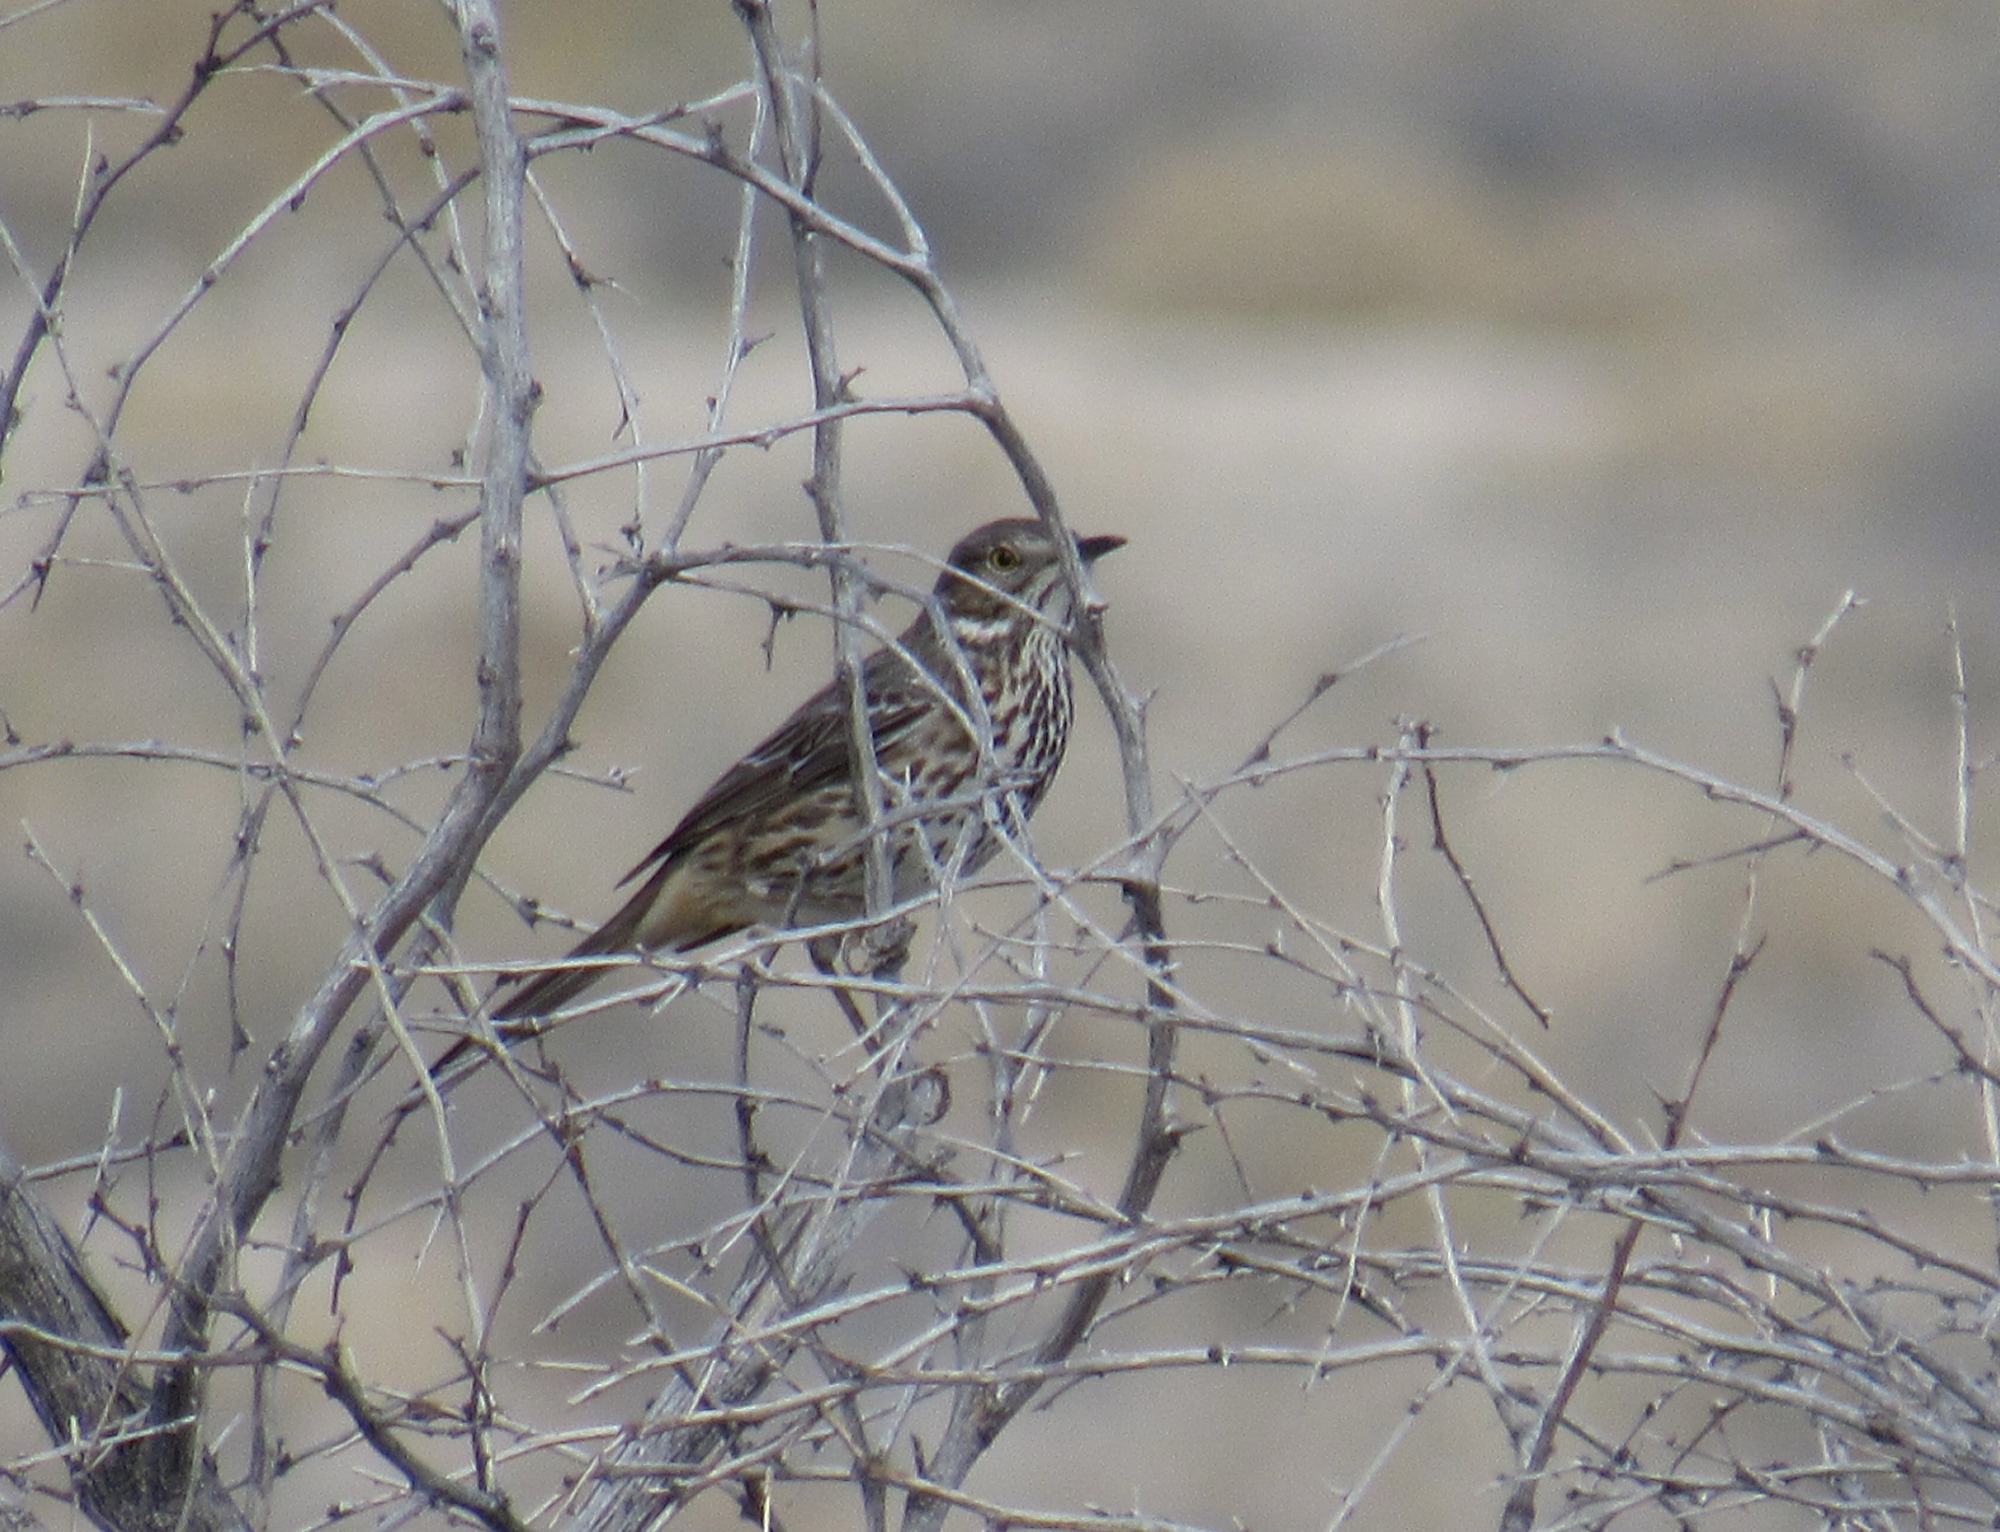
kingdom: Animalia
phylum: Chordata
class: Aves
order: Passeriformes
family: Mimidae
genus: Oreoscoptes
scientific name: Oreoscoptes montanus
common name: Sage thrasher
